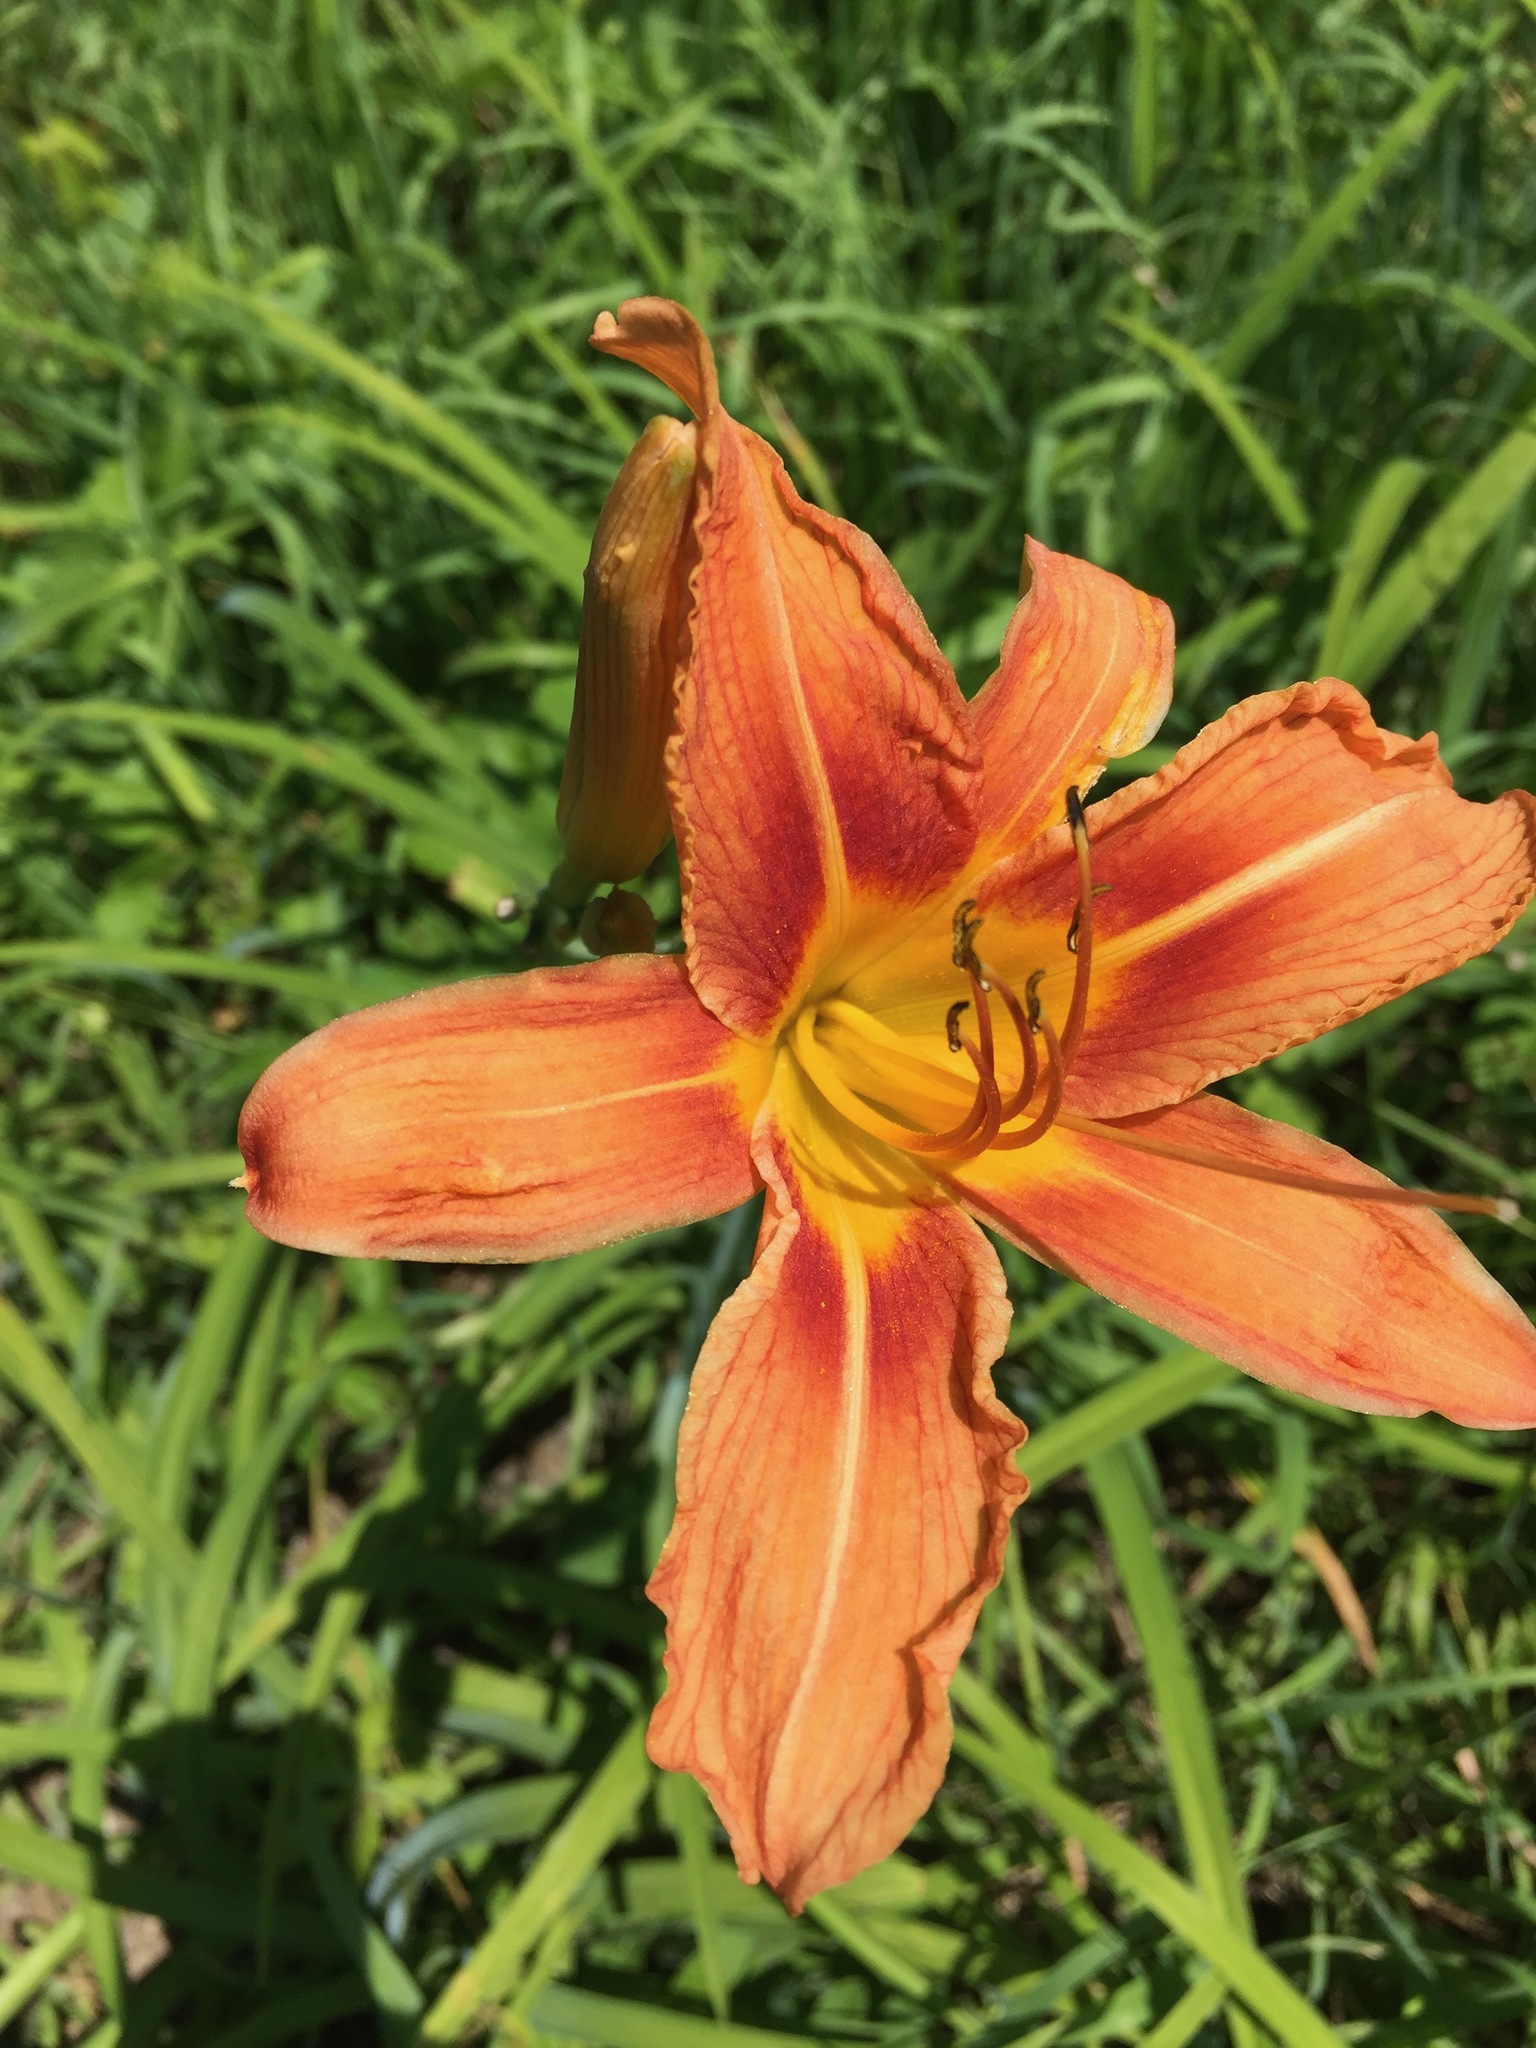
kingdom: Plantae
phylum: Tracheophyta
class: Liliopsida
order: Asparagales
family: Asphodelaceae
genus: Hemerocallis
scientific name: Hemerocallis fulva
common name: Orange day-lily
